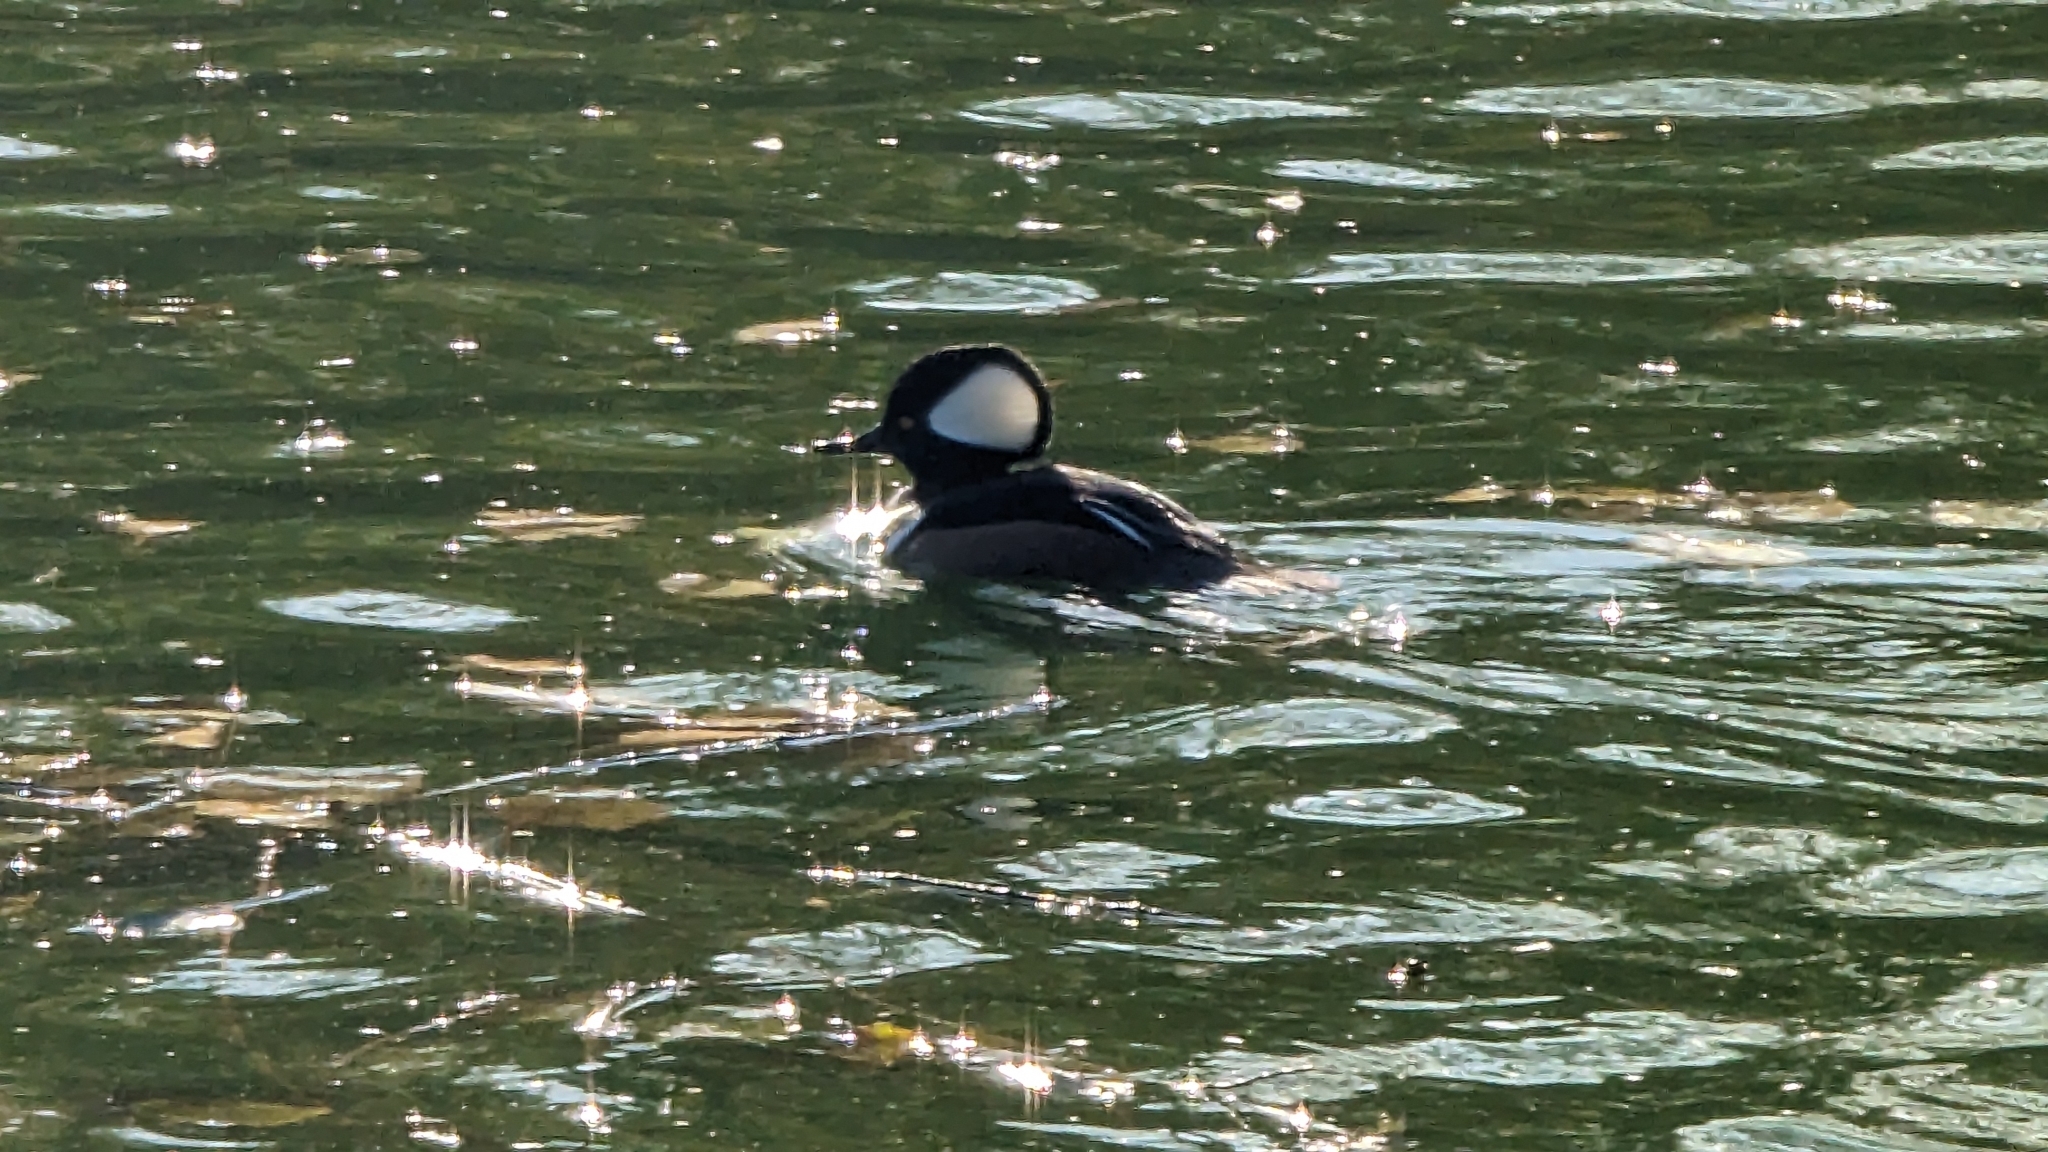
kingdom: Animalia
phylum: Chordata
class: Aves
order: Anseriformes
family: Anatidae
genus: Lophodytes
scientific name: Lophodytes cucullatus
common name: Hooded merganser
